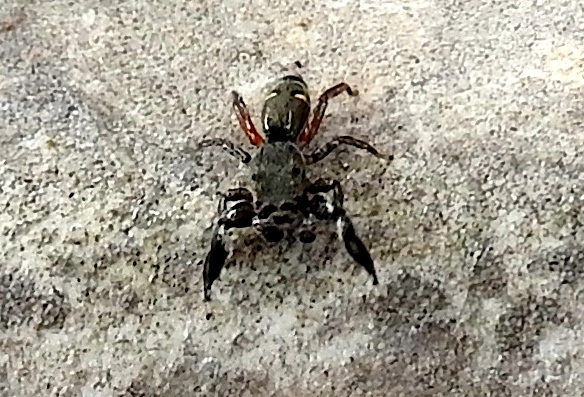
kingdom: Animalia
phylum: Arthropoda
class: Arachnida
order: Araneae
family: Salticidae
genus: Metacyrba
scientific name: Metacyrba punctata
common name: Jumping spiders
